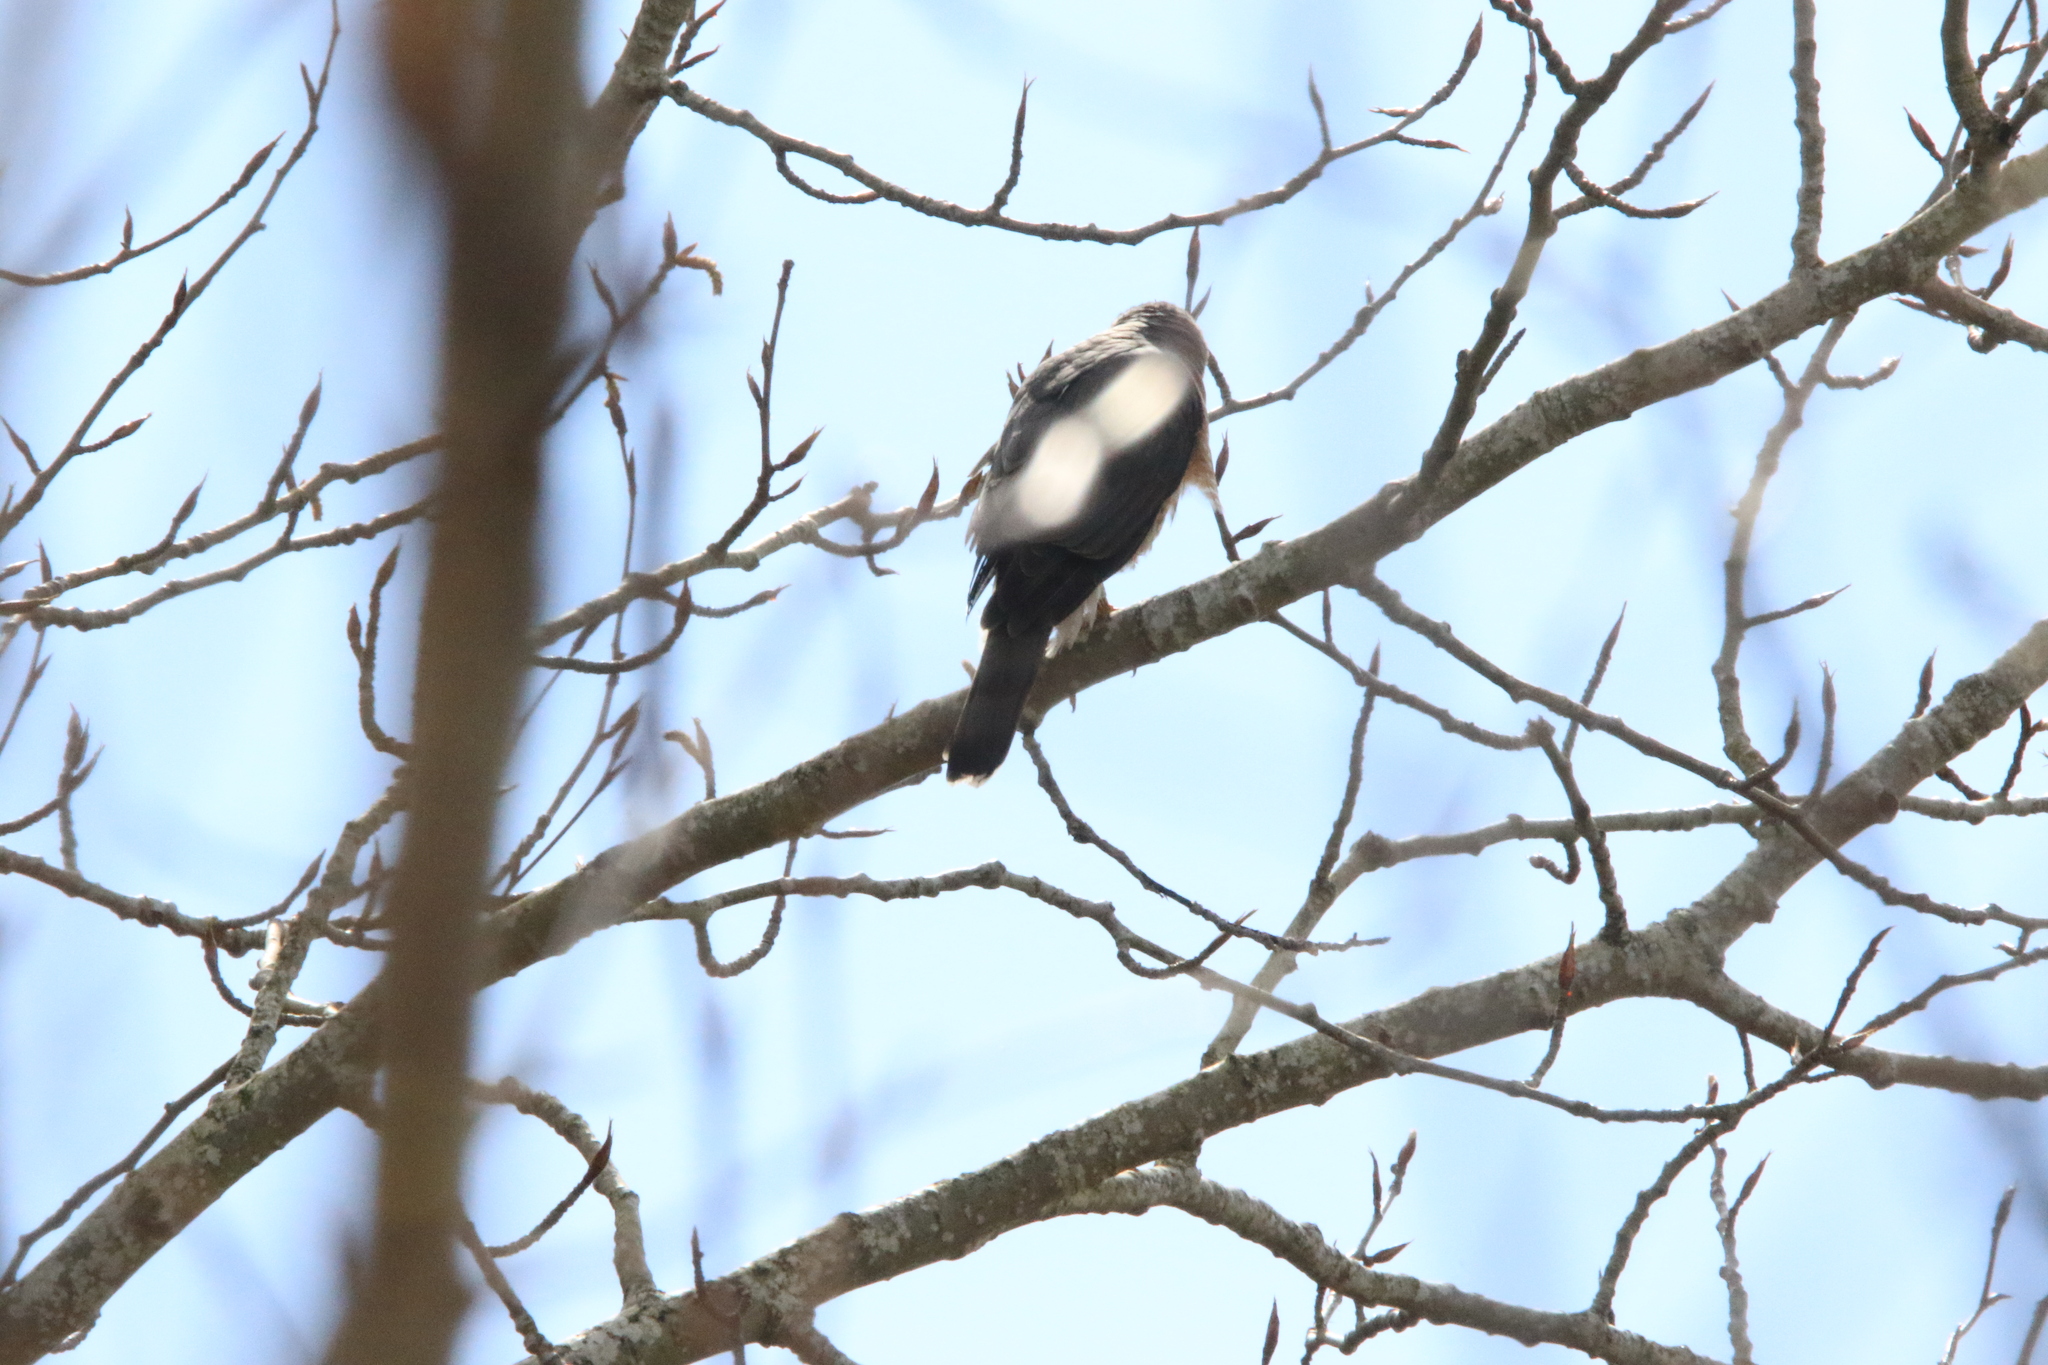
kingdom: Animalia
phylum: Chordata
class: Aves
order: Accipitriformes
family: Accipitridae
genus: Accipiter
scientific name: Accipiter cooperii
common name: Cooper's hawk
